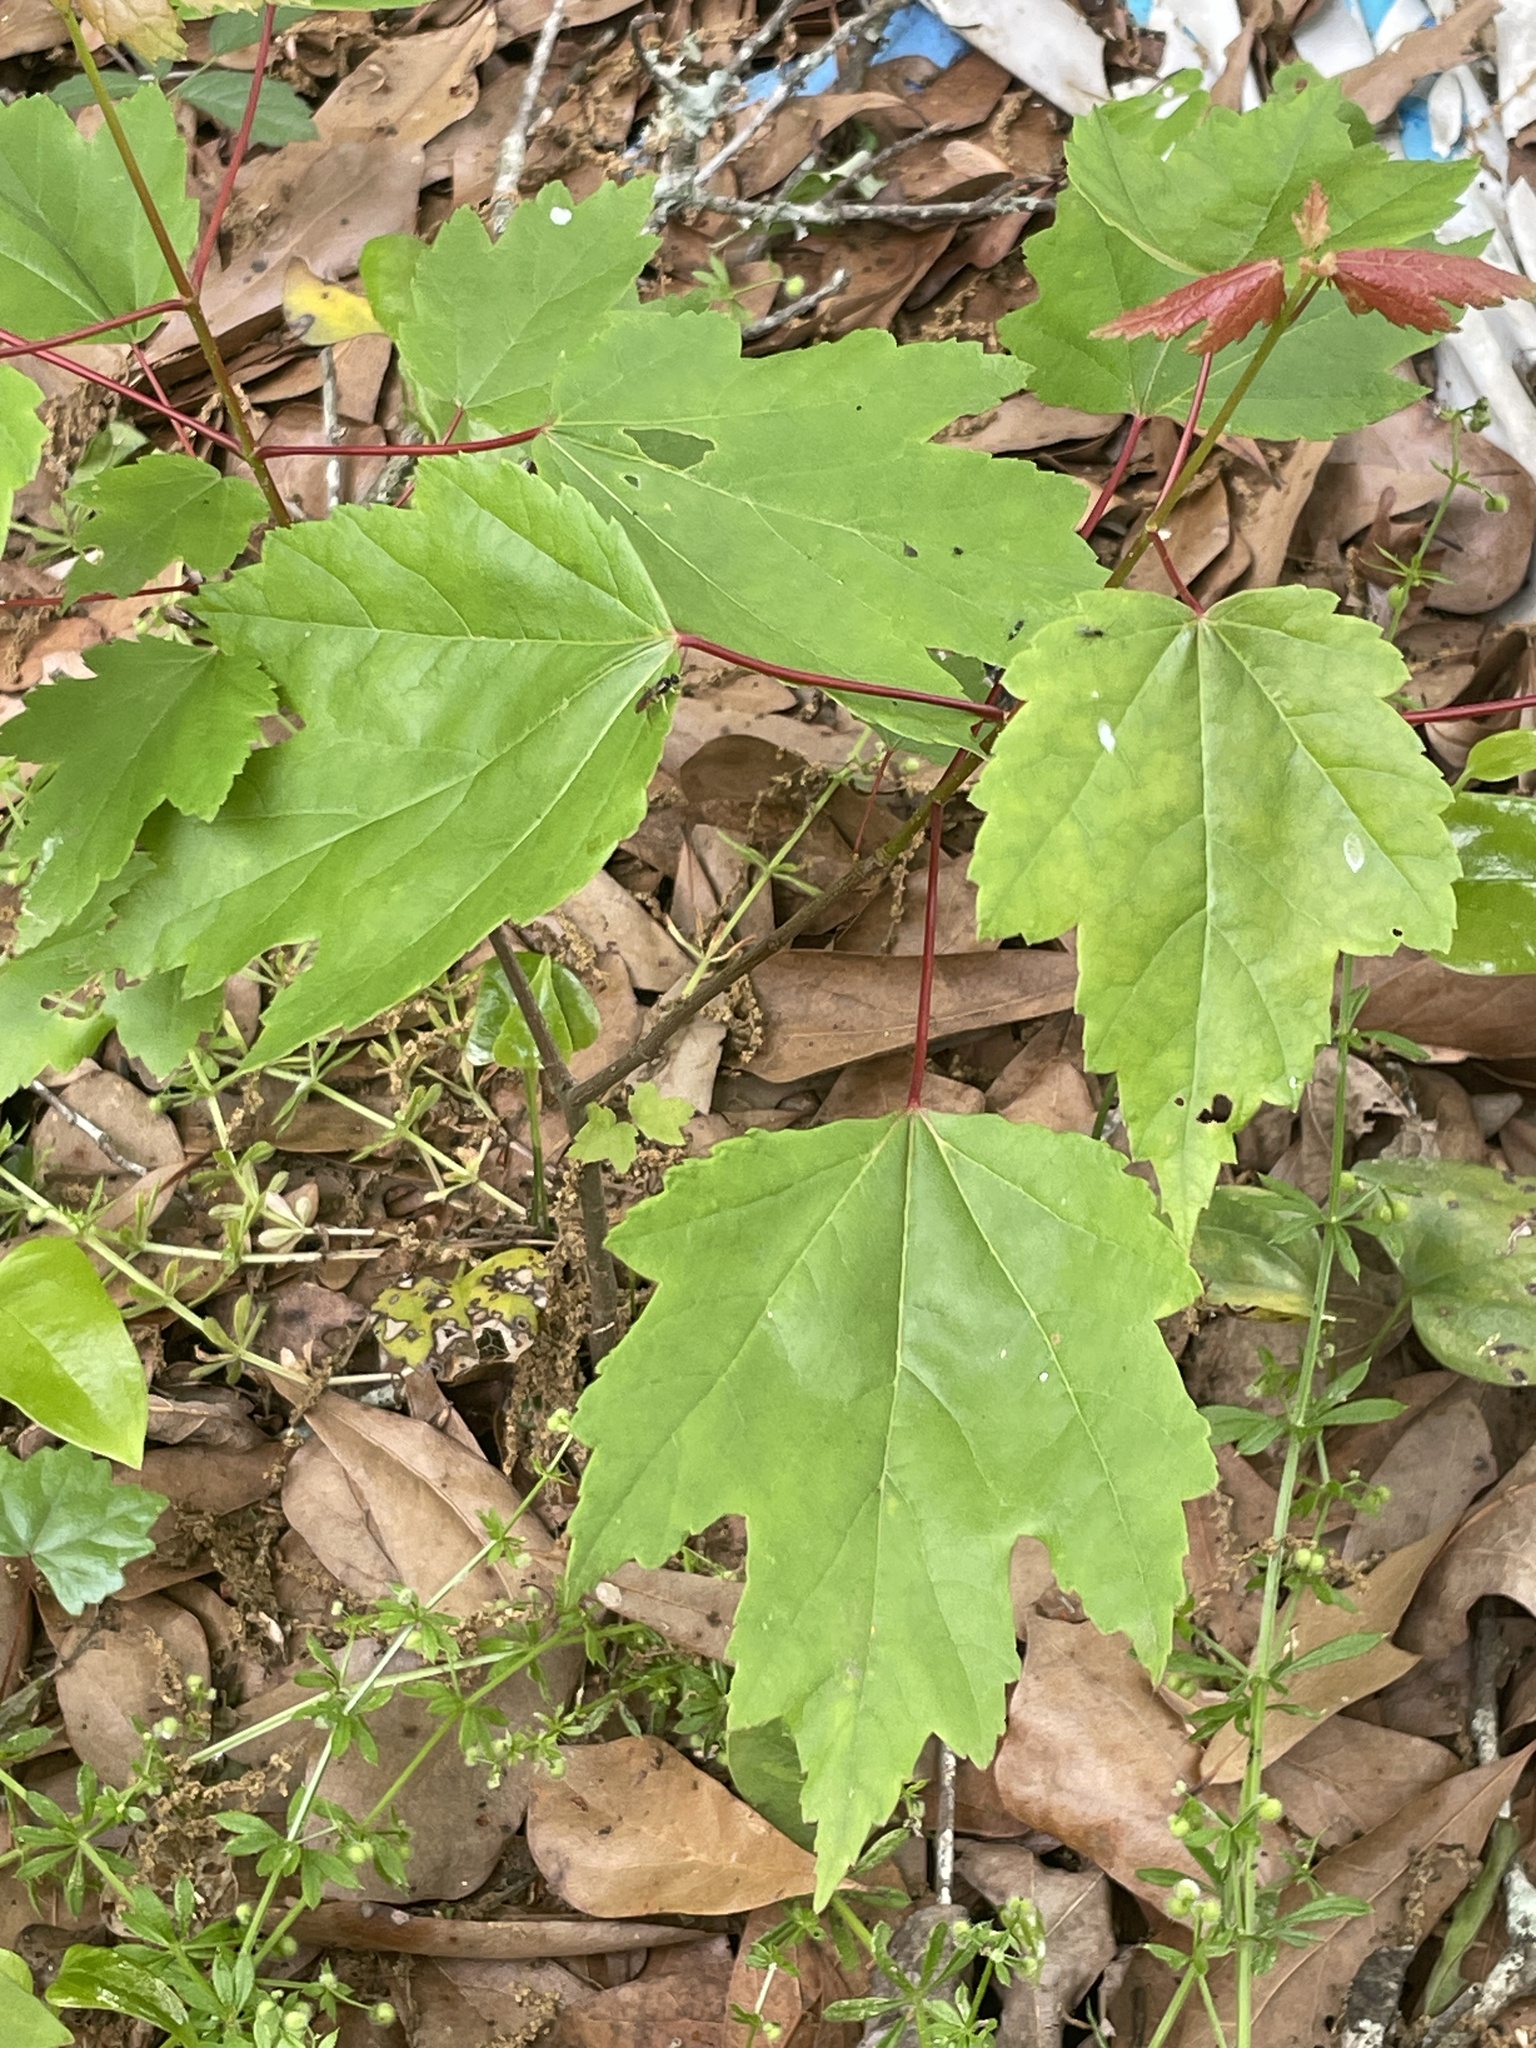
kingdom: Plantae
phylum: Tracheophyta
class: Magnoliopsida
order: Sapindales
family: Sapindaceae
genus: Acer
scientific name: Acer rubrum
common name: Red maple
